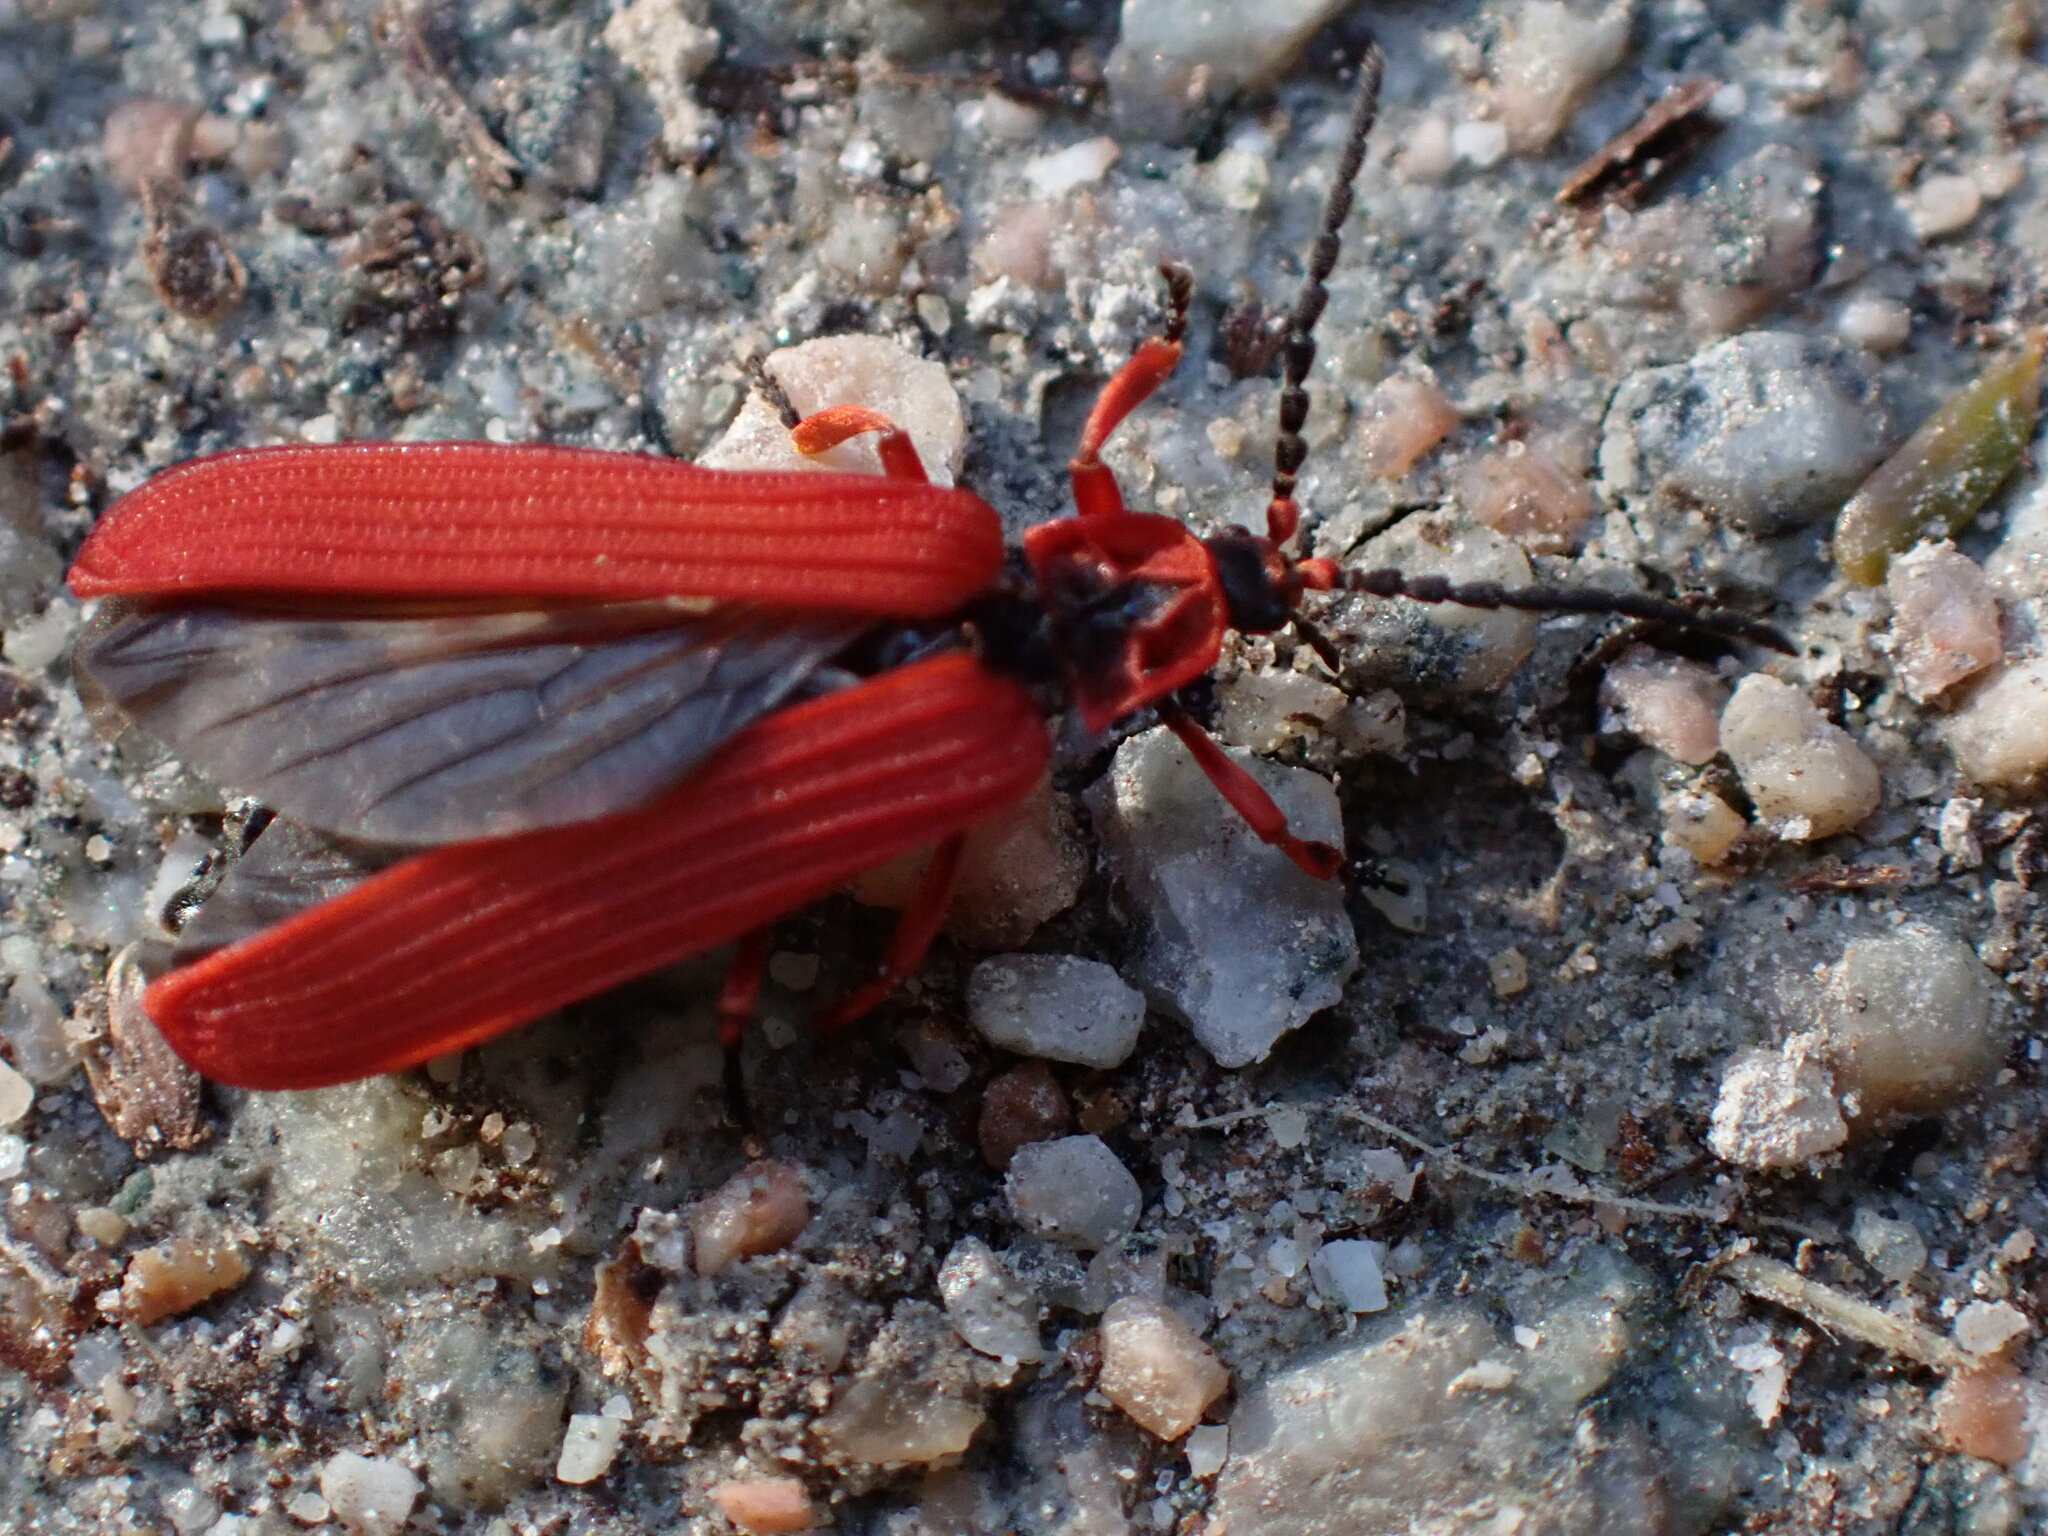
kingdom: Animalia
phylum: Arthropoda
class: Insecta
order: Coleoptera
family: Lycidae
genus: Dictyoptera
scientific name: Dictyoptera simplicipes
